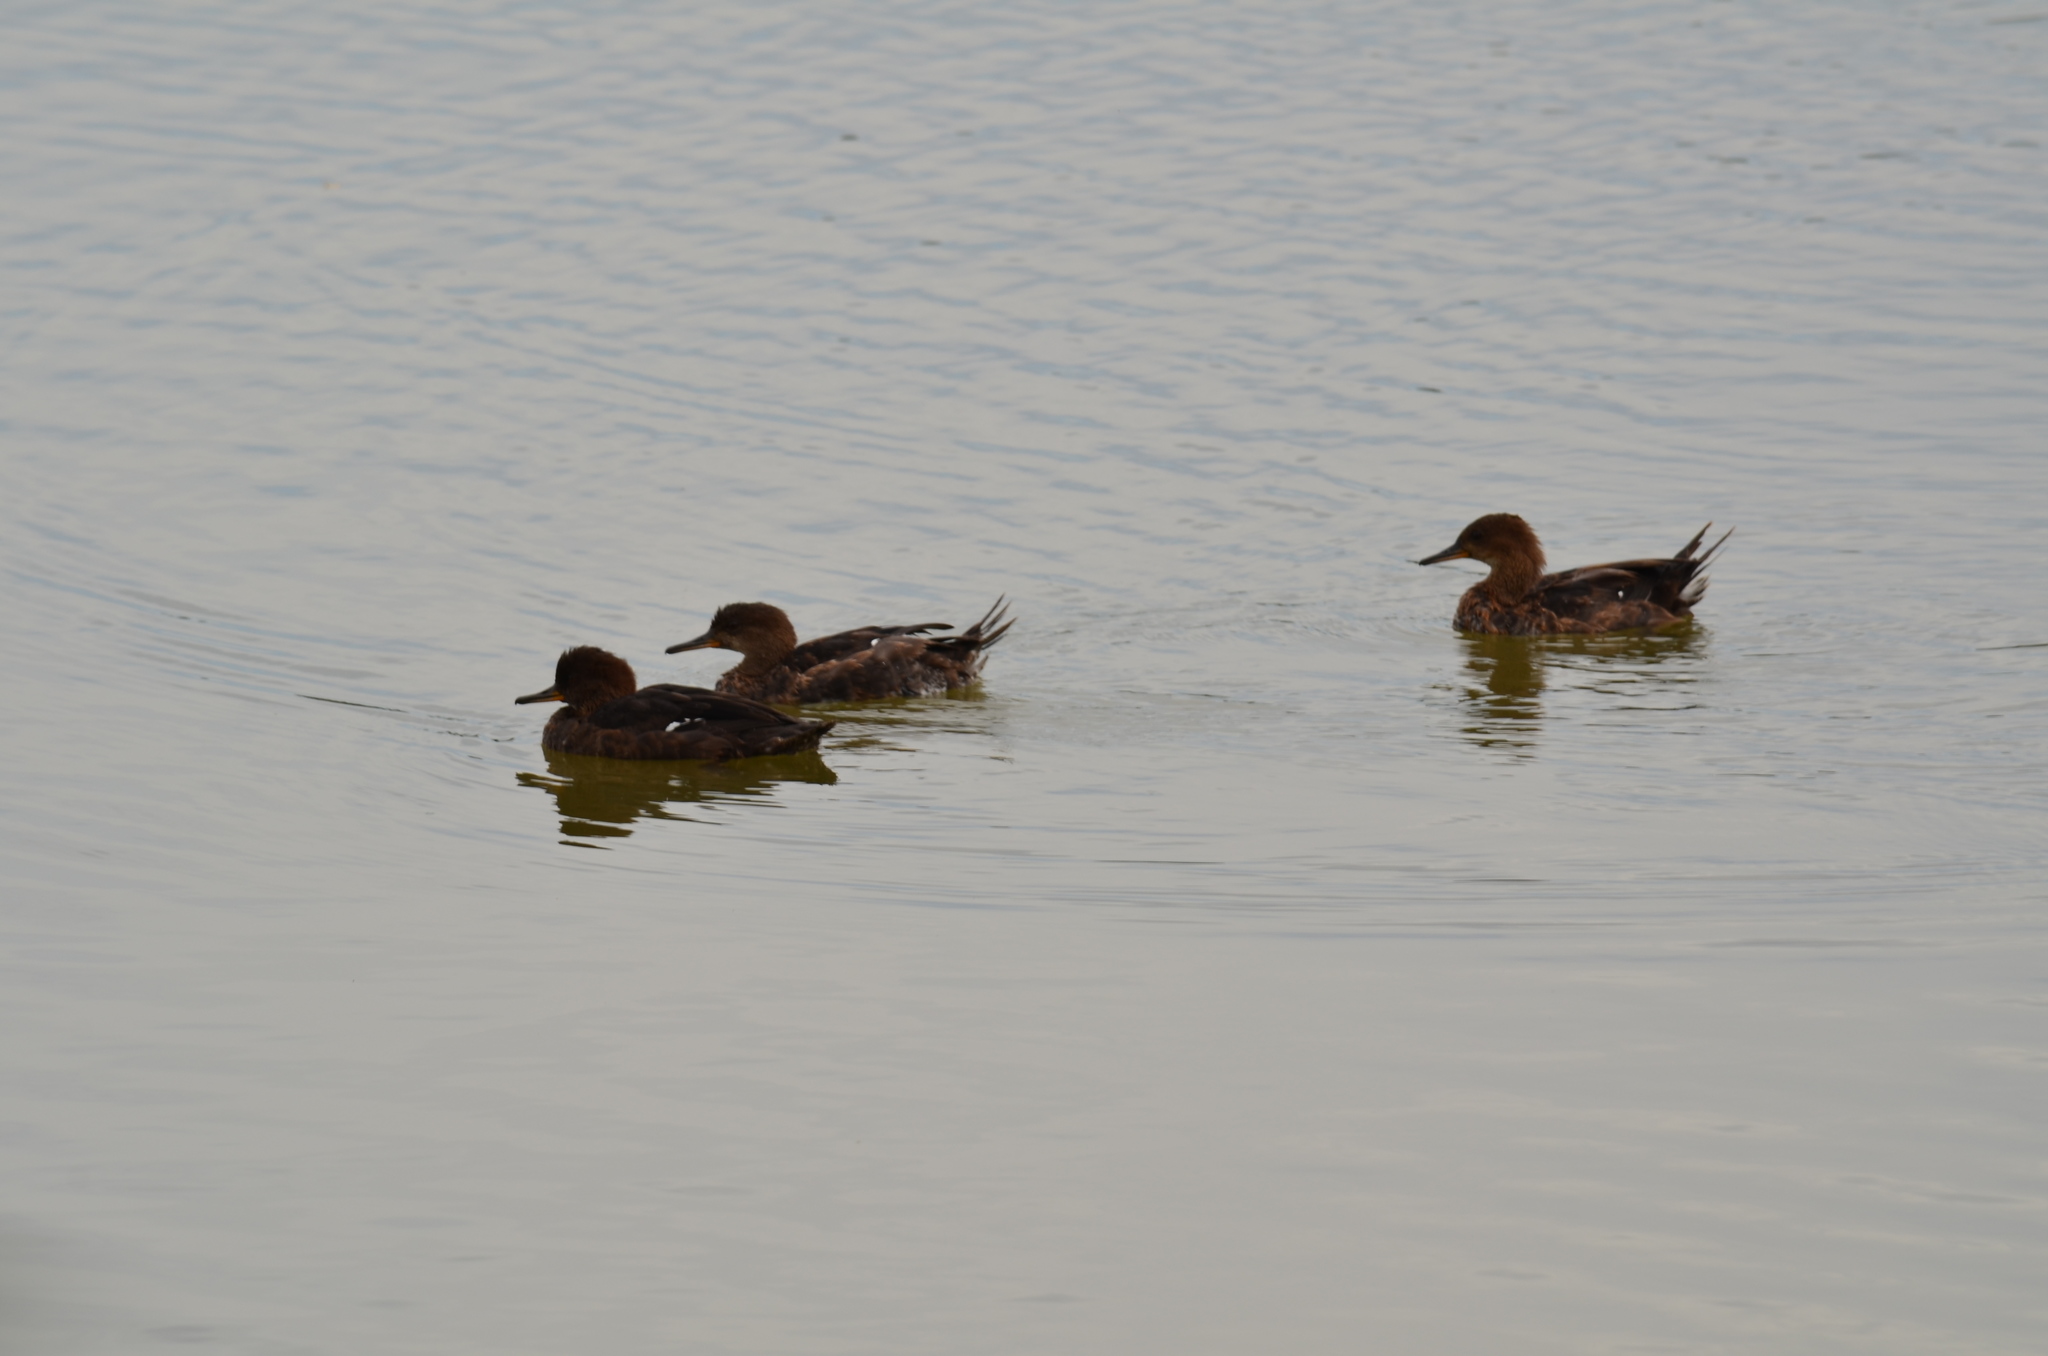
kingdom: Animalia
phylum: Chordata
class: Aves
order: Anseriformes
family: Anatidae
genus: Lophodytes
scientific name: Lophodytes cucullatus
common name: Hooded merganser
